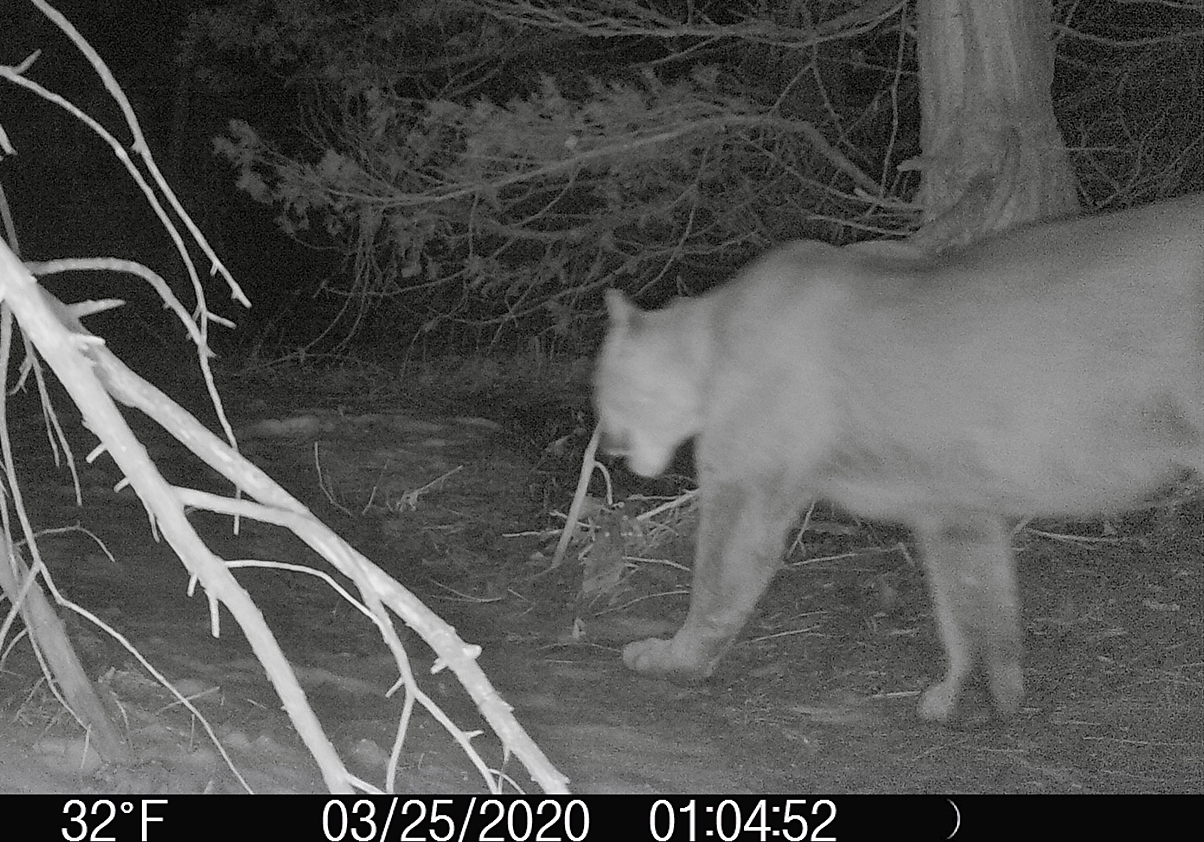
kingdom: Animalia
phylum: Chordata
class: Mammalia
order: Carnivora
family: Felidae
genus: Puma
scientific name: Puma concolor
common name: Puma
